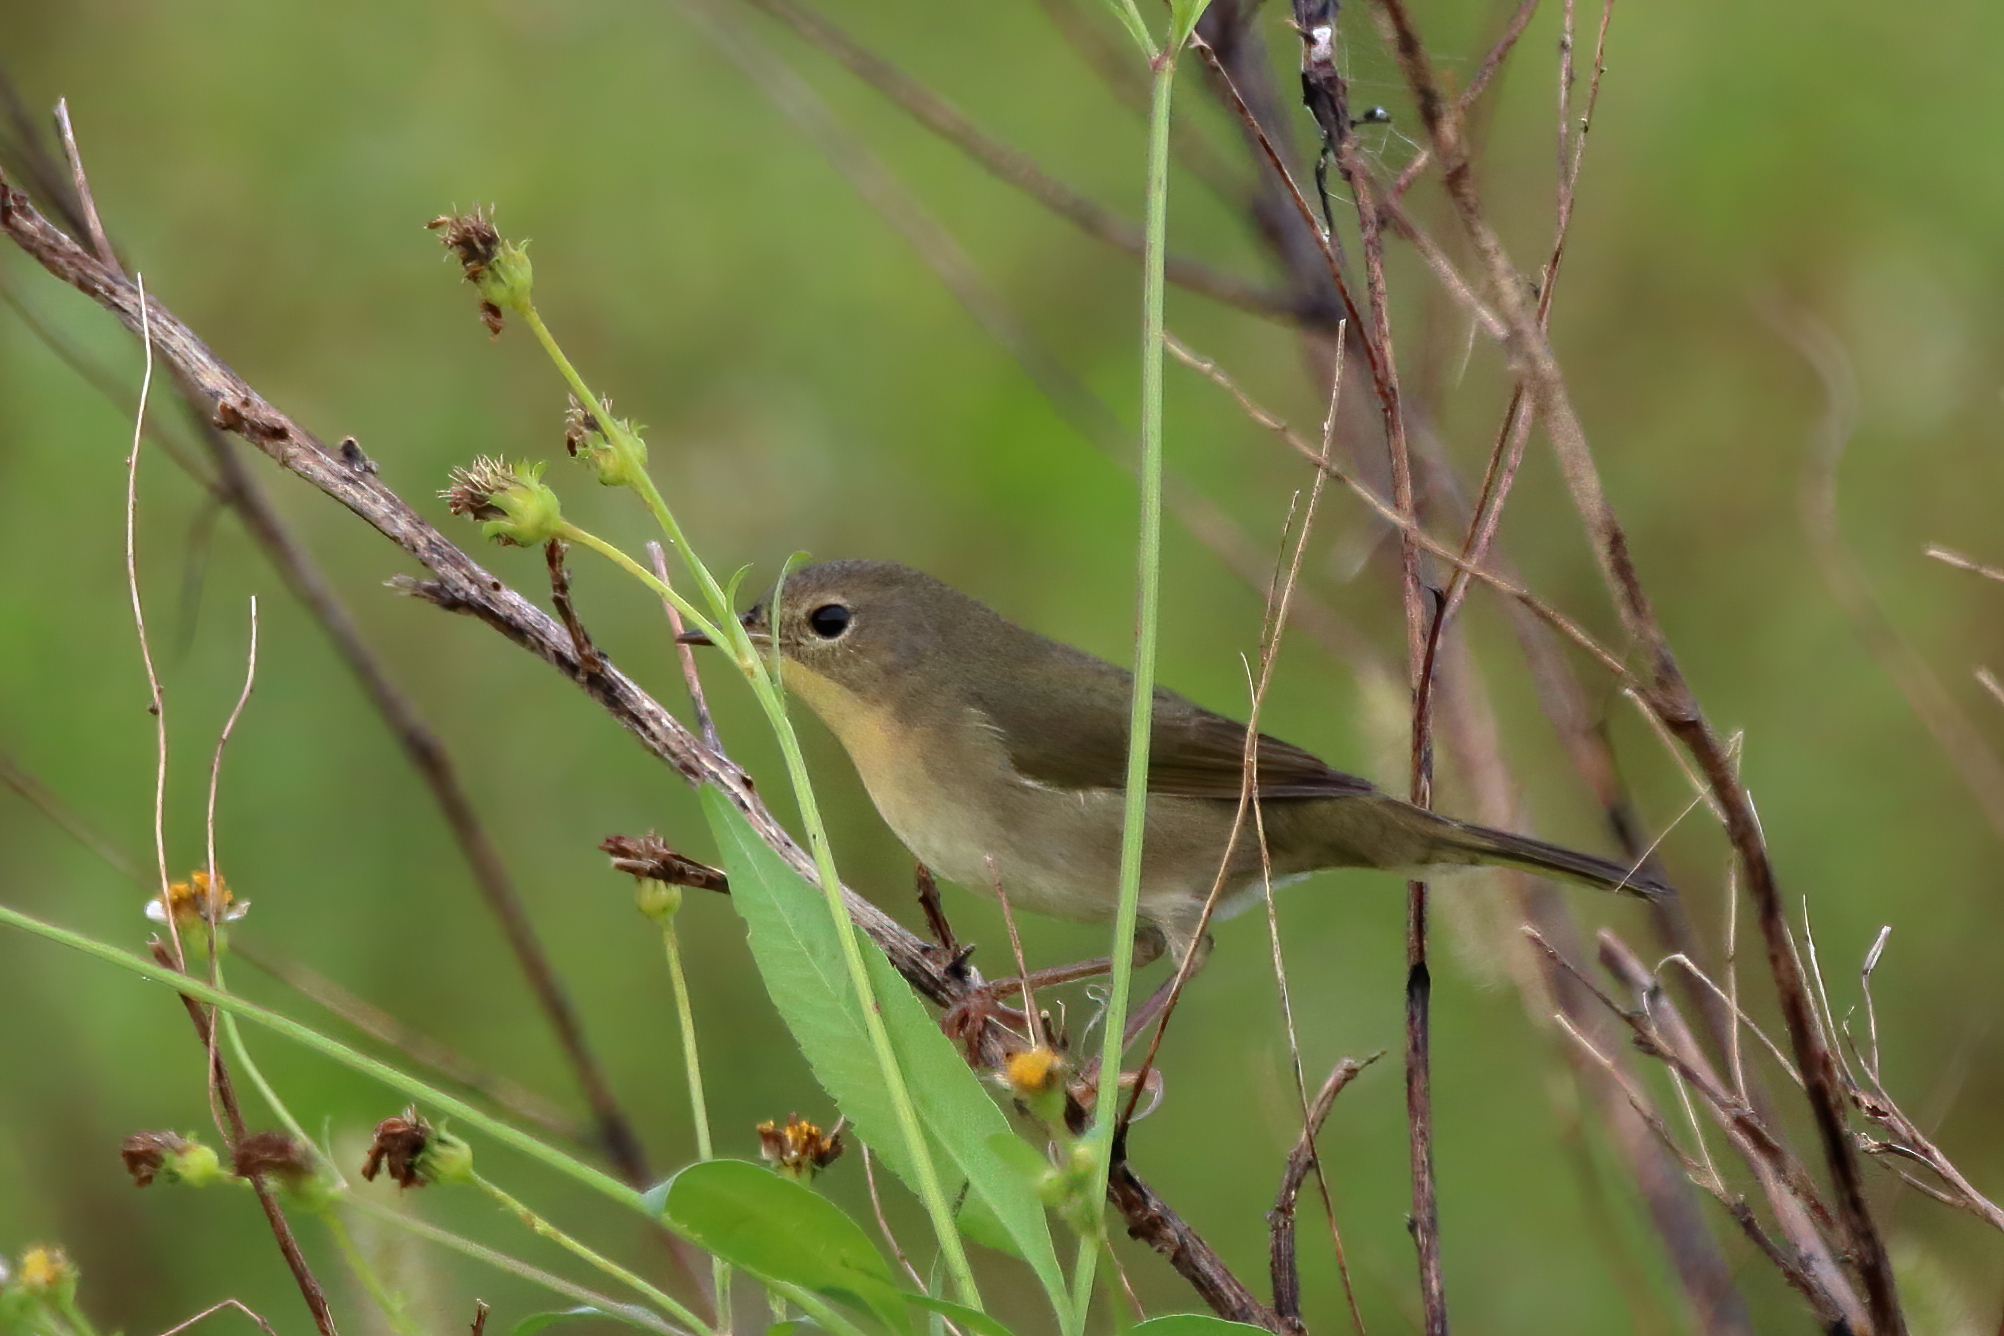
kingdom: Animalia
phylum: Chordata
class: Aves
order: Passeriformes
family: Parulidae
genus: Geothlypis
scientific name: Geothlypis trichas
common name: Common yellowthroat
